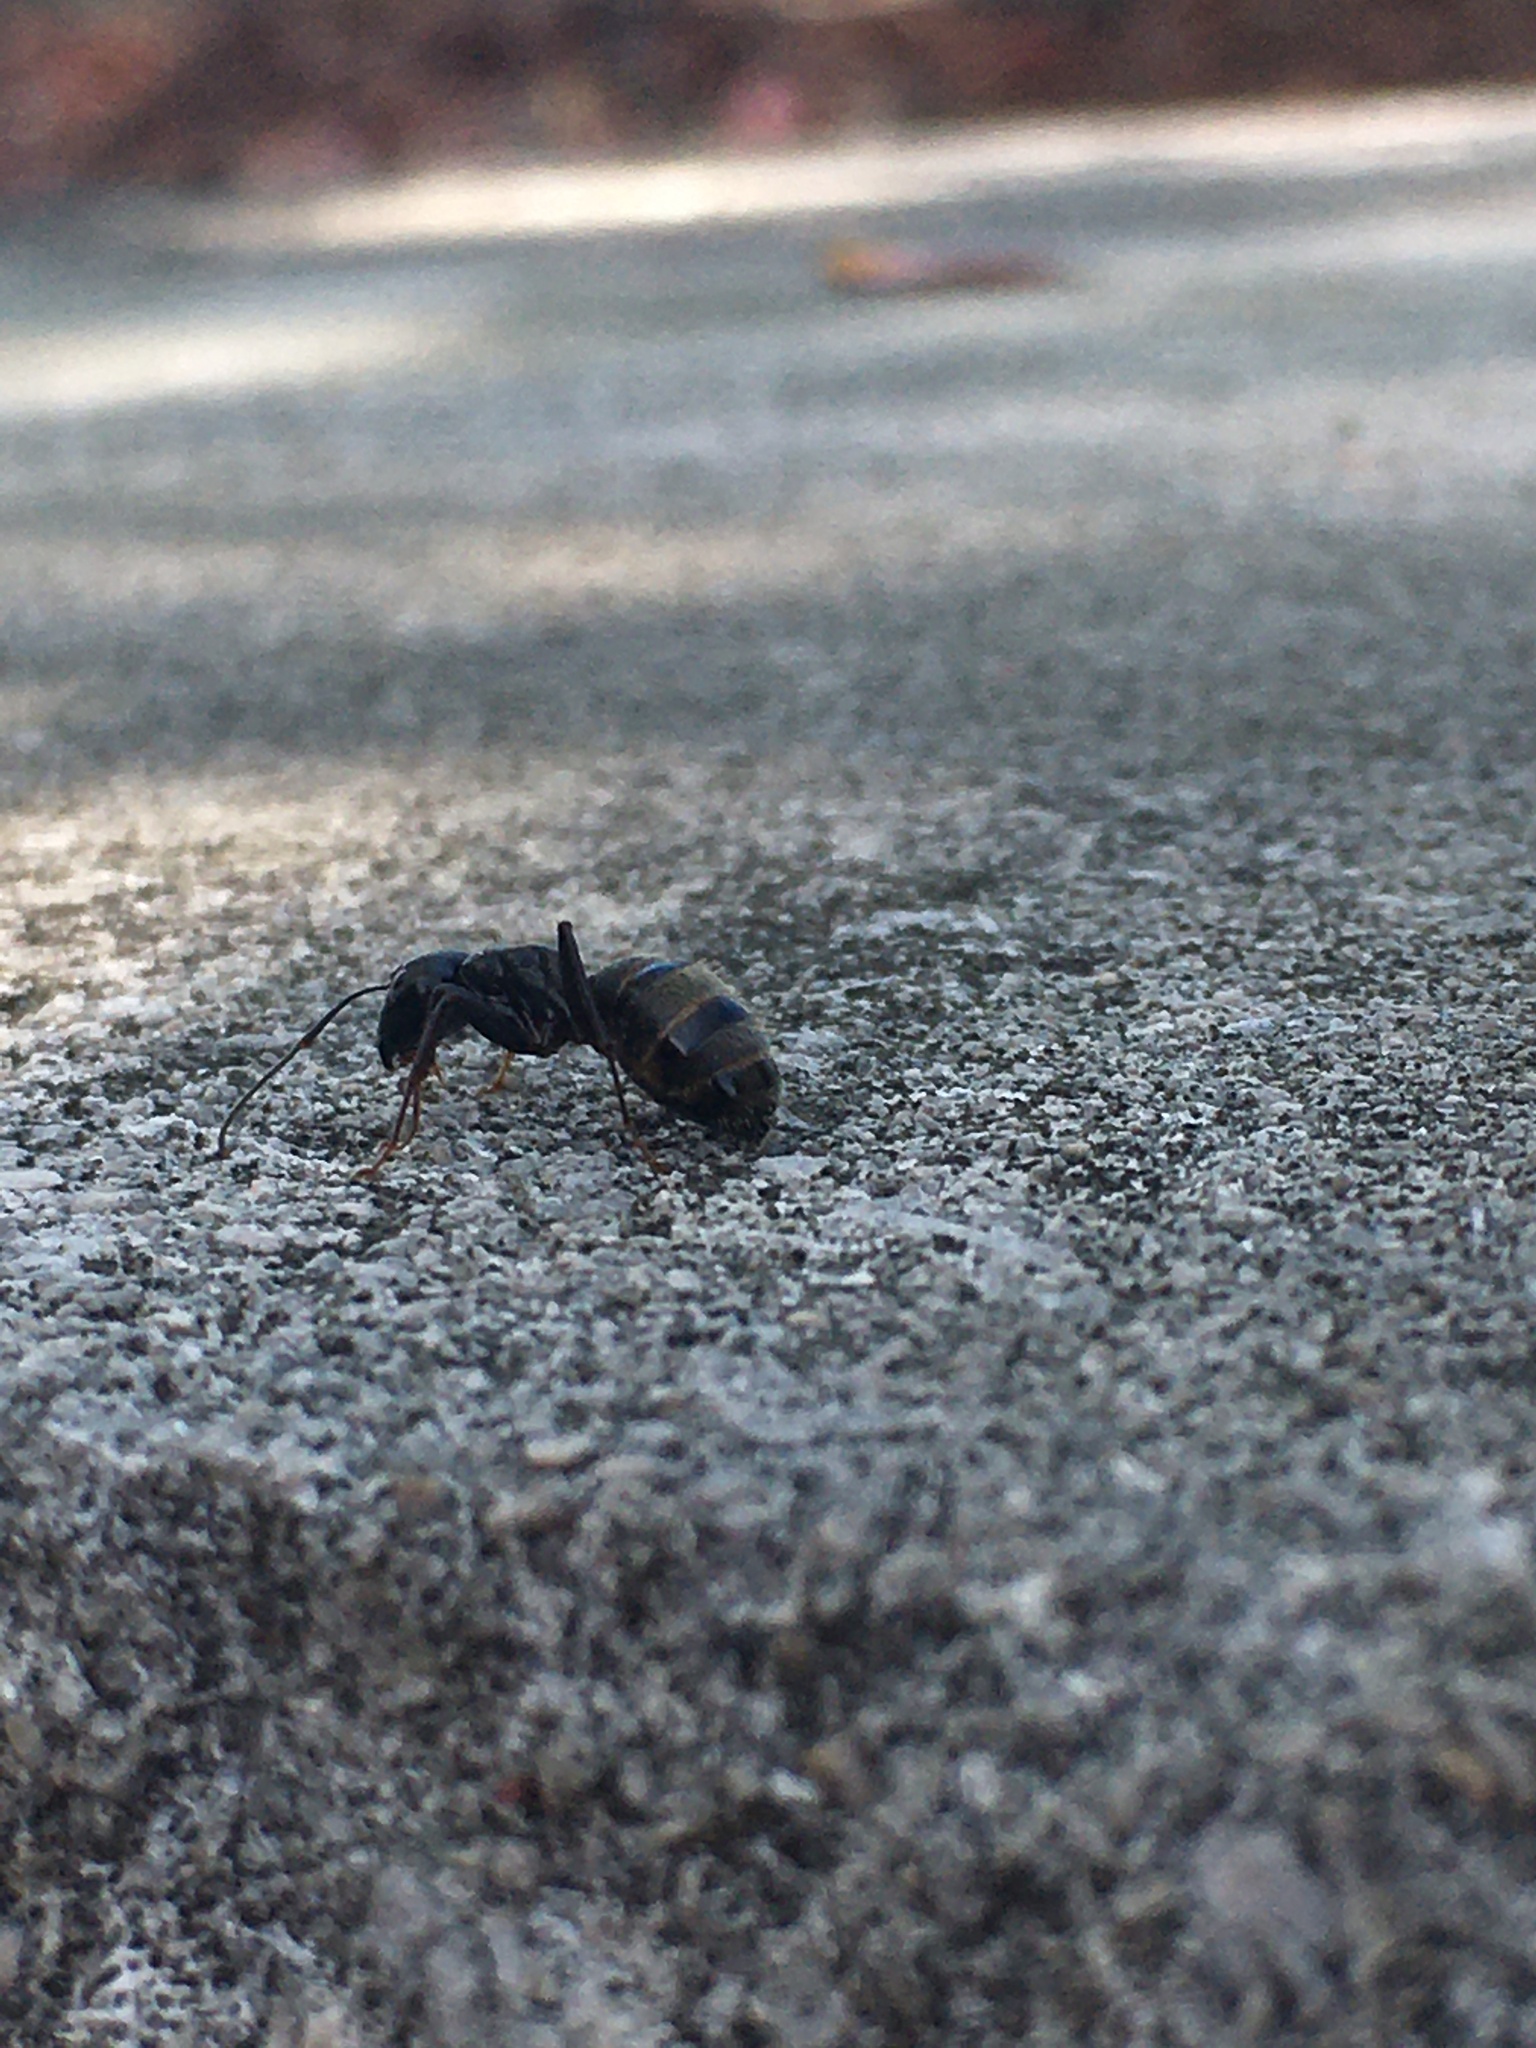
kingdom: Animalia
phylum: Arthropoda
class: Insecta
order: Hymenoptera
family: Formicidae
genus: Camponotus
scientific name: Camponotus pennsylvanicus
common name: Black carpenter ant
